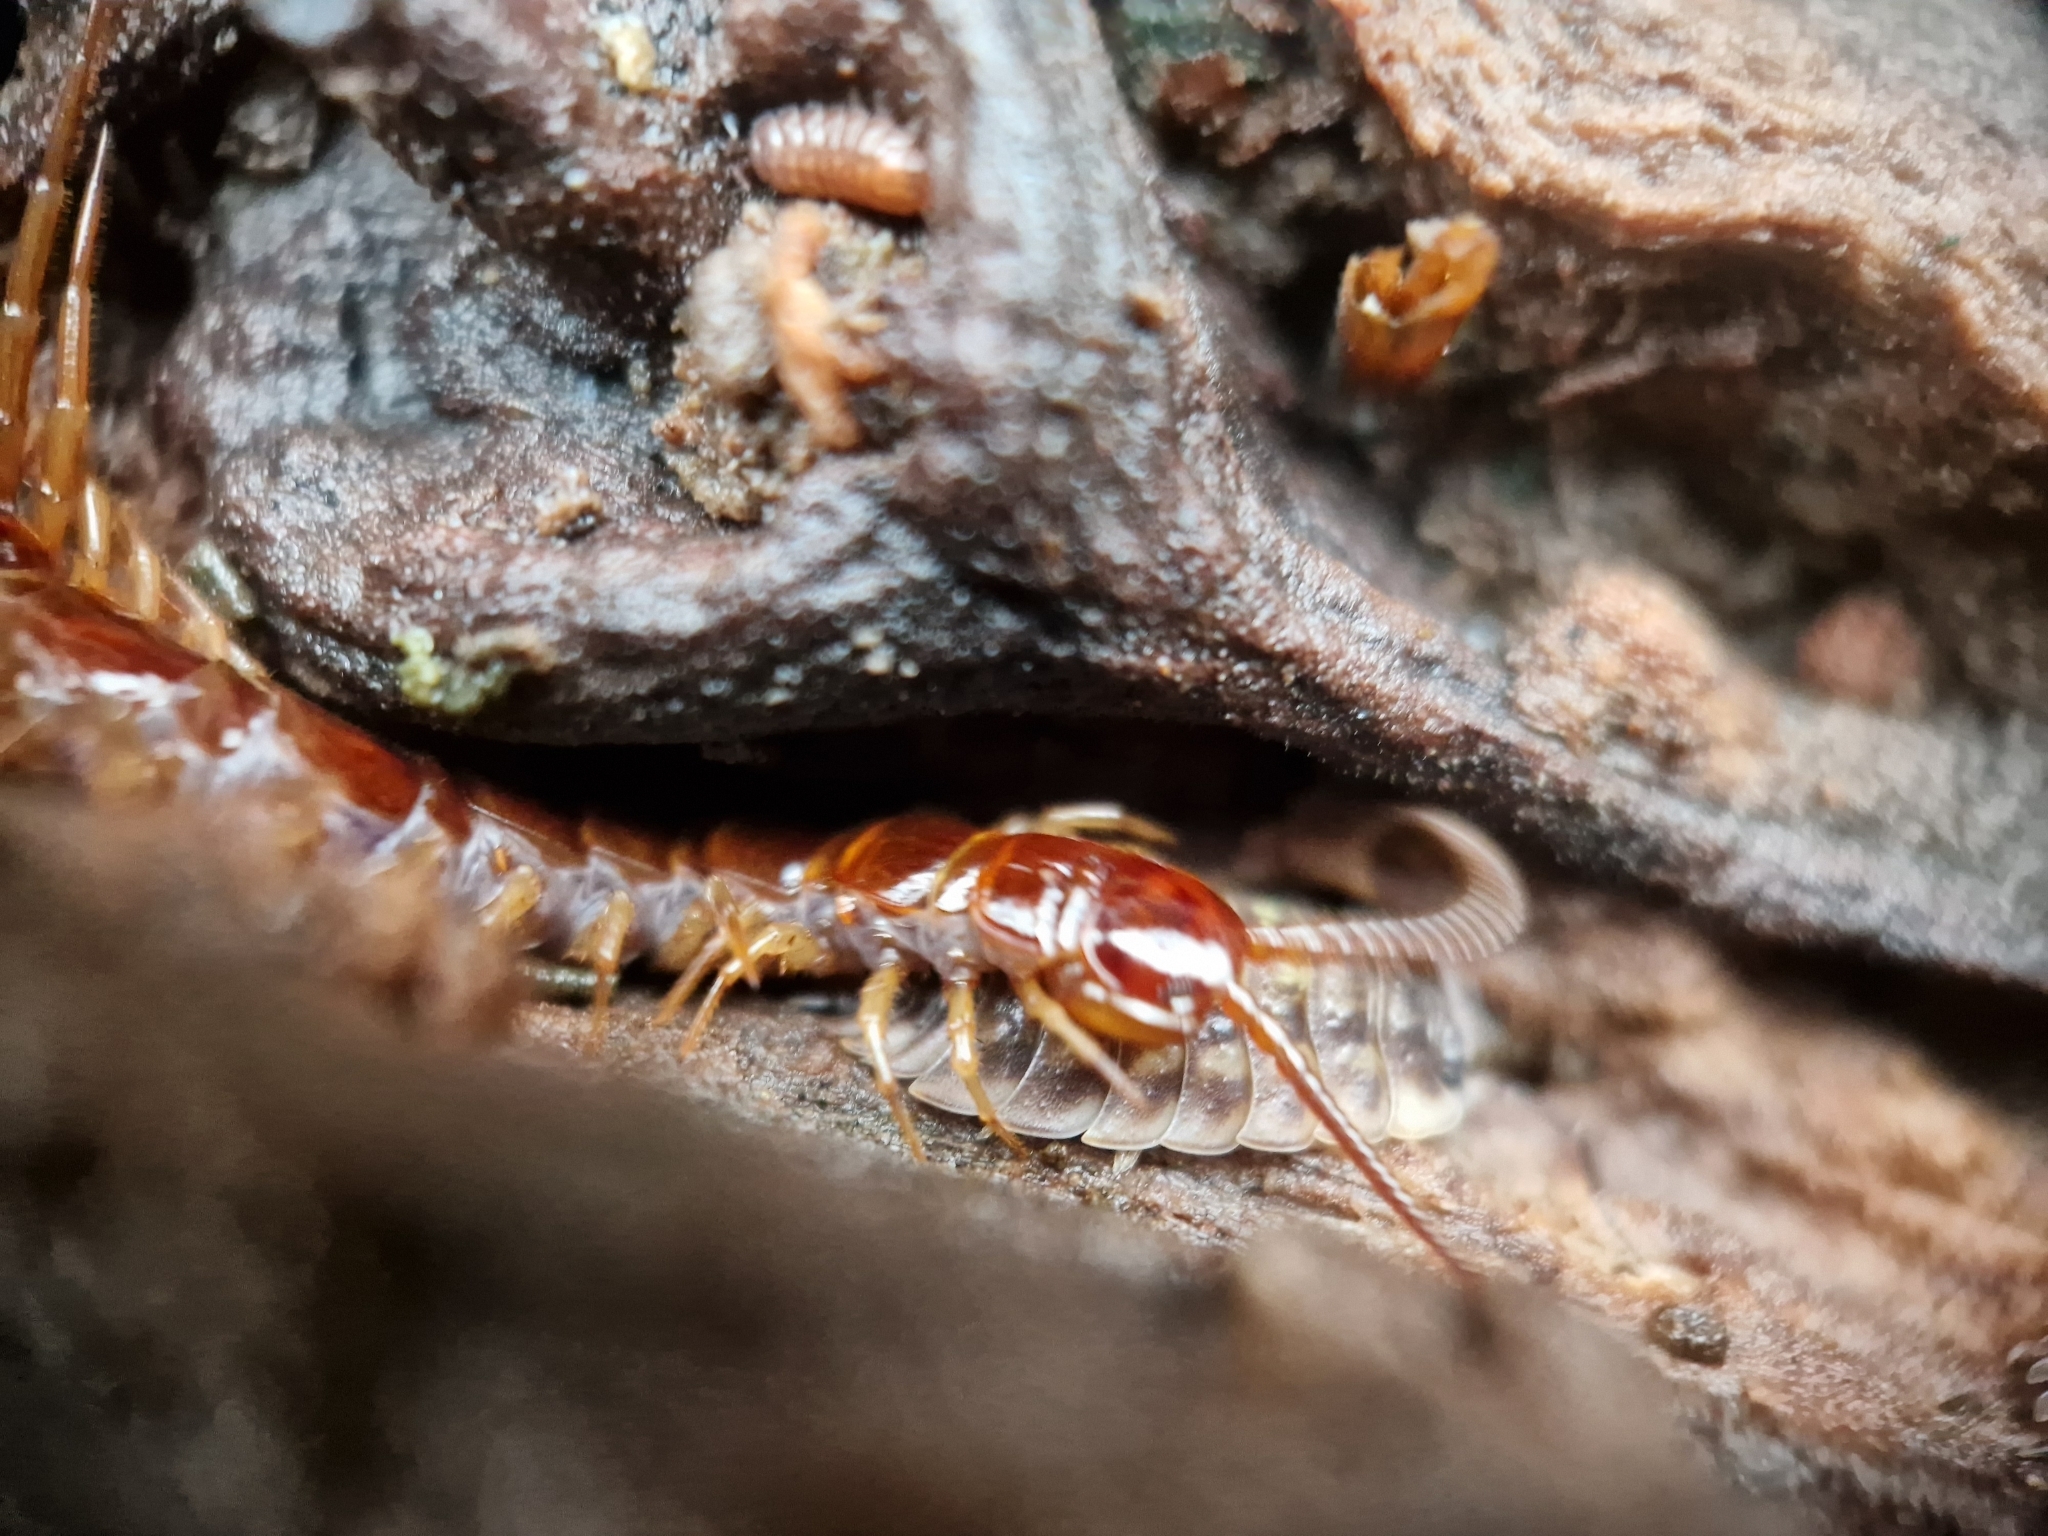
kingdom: Animalia
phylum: Arthropoda
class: Chilopoda
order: Lithobiomorpha
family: Lithobiidae
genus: Lithobius
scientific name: Lithobius forficatus
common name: Centipede
